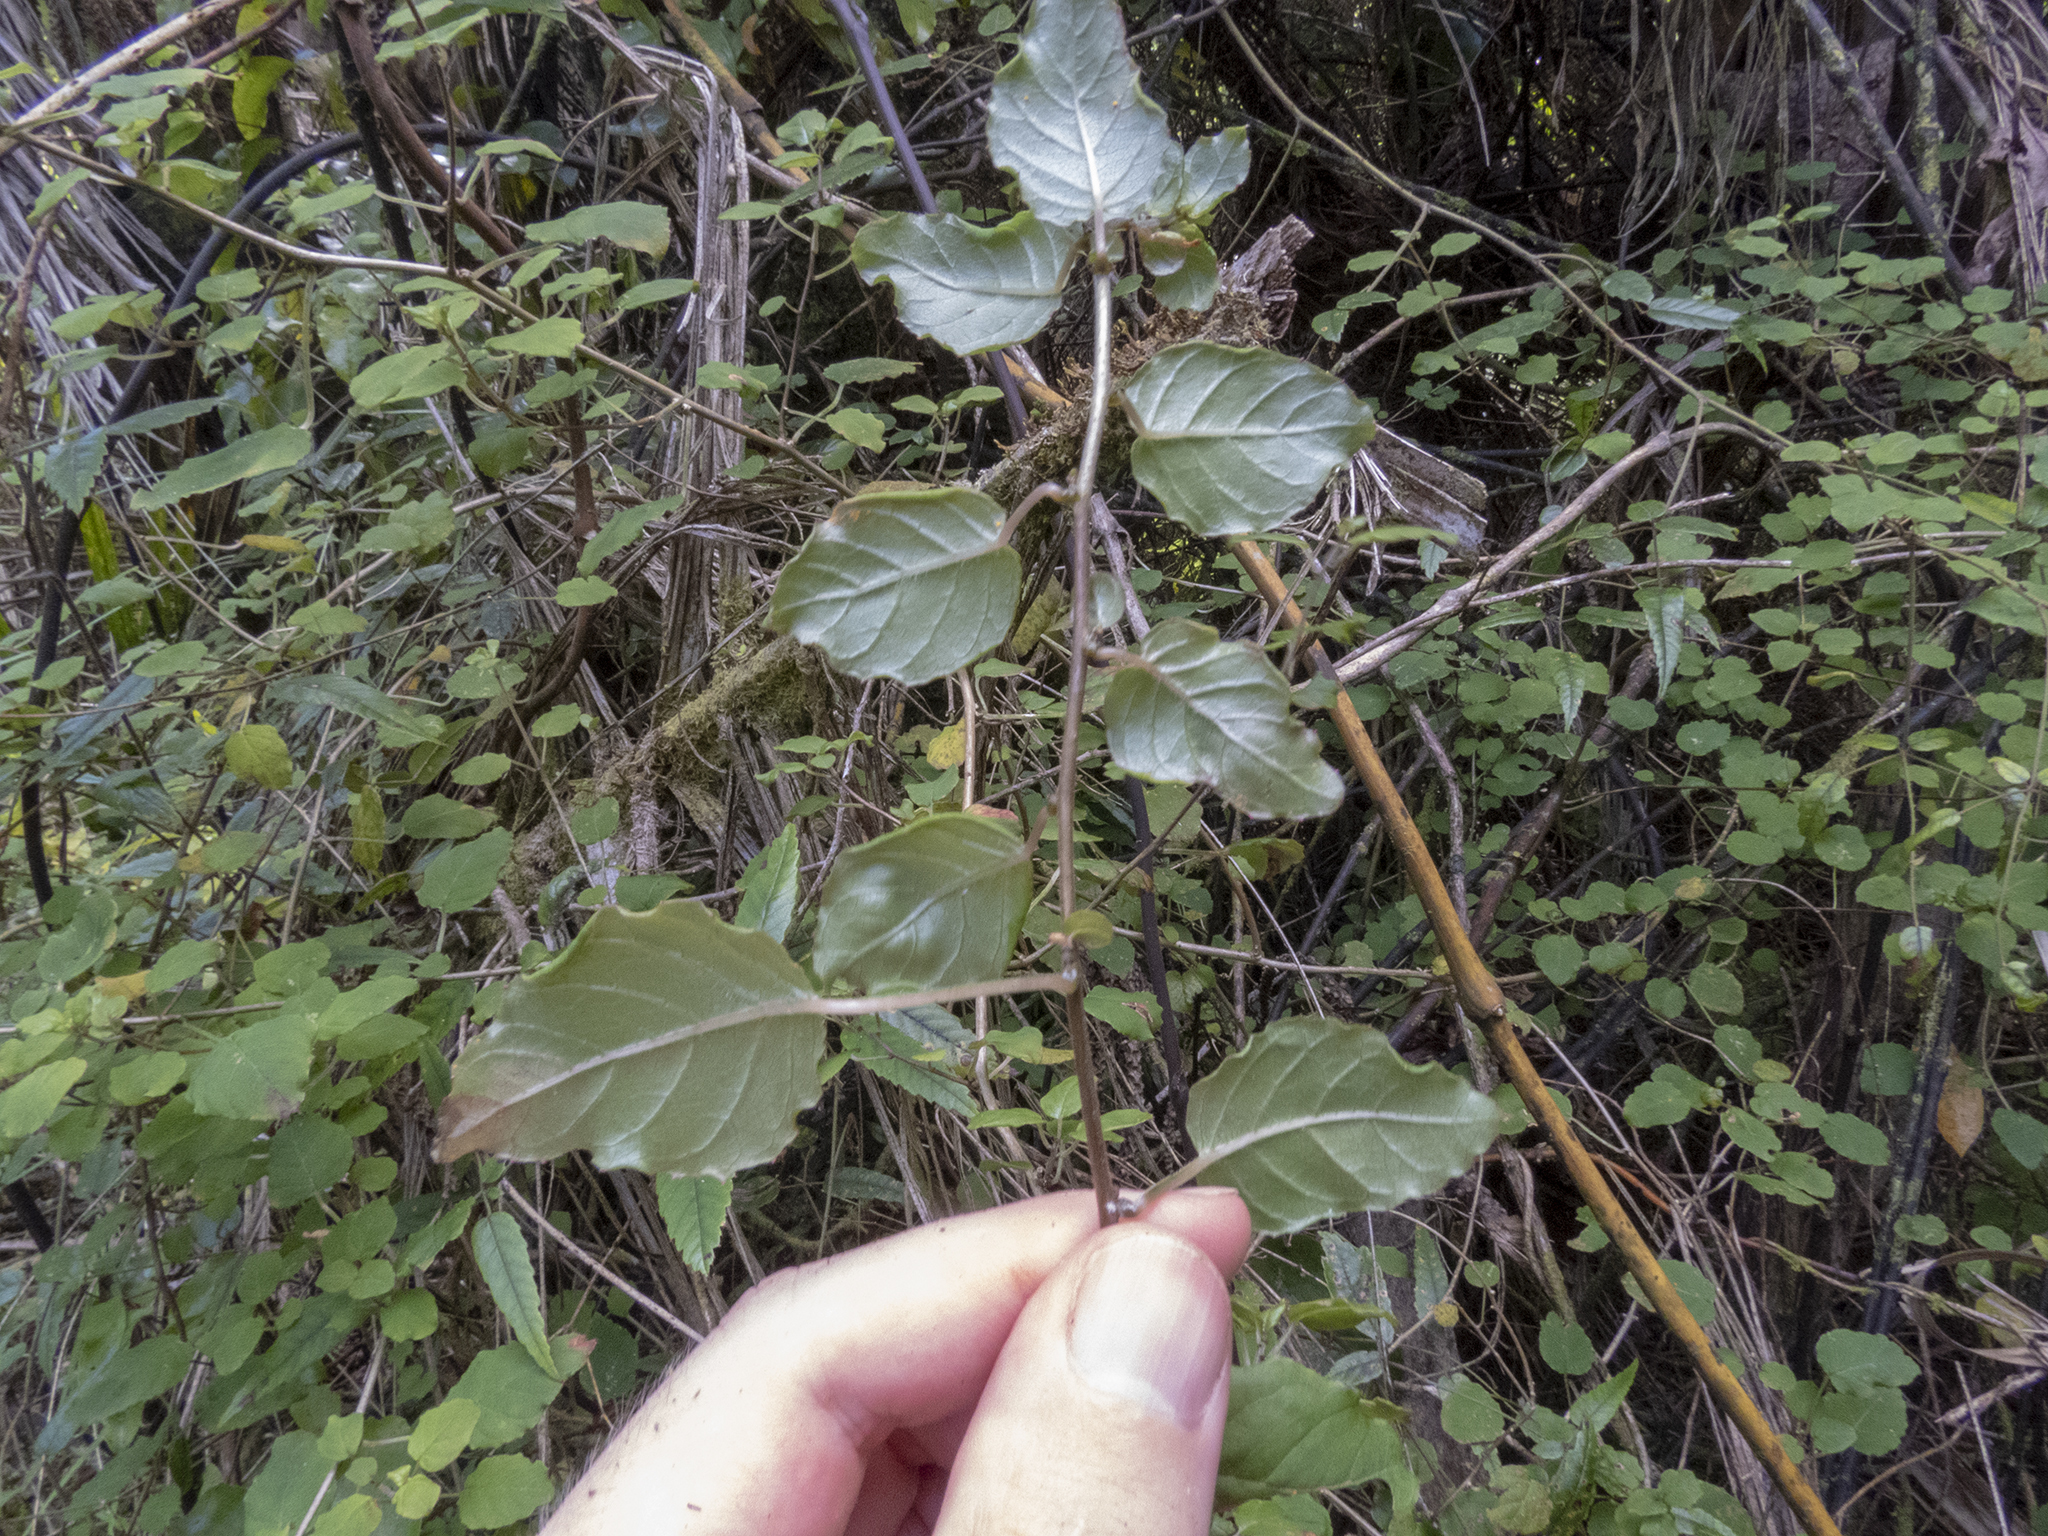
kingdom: Plantae
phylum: Tracheophyta
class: Magnoliopsida
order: Myrtales
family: Onagraceae
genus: Fuchsia
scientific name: Fuchsia perscandens
